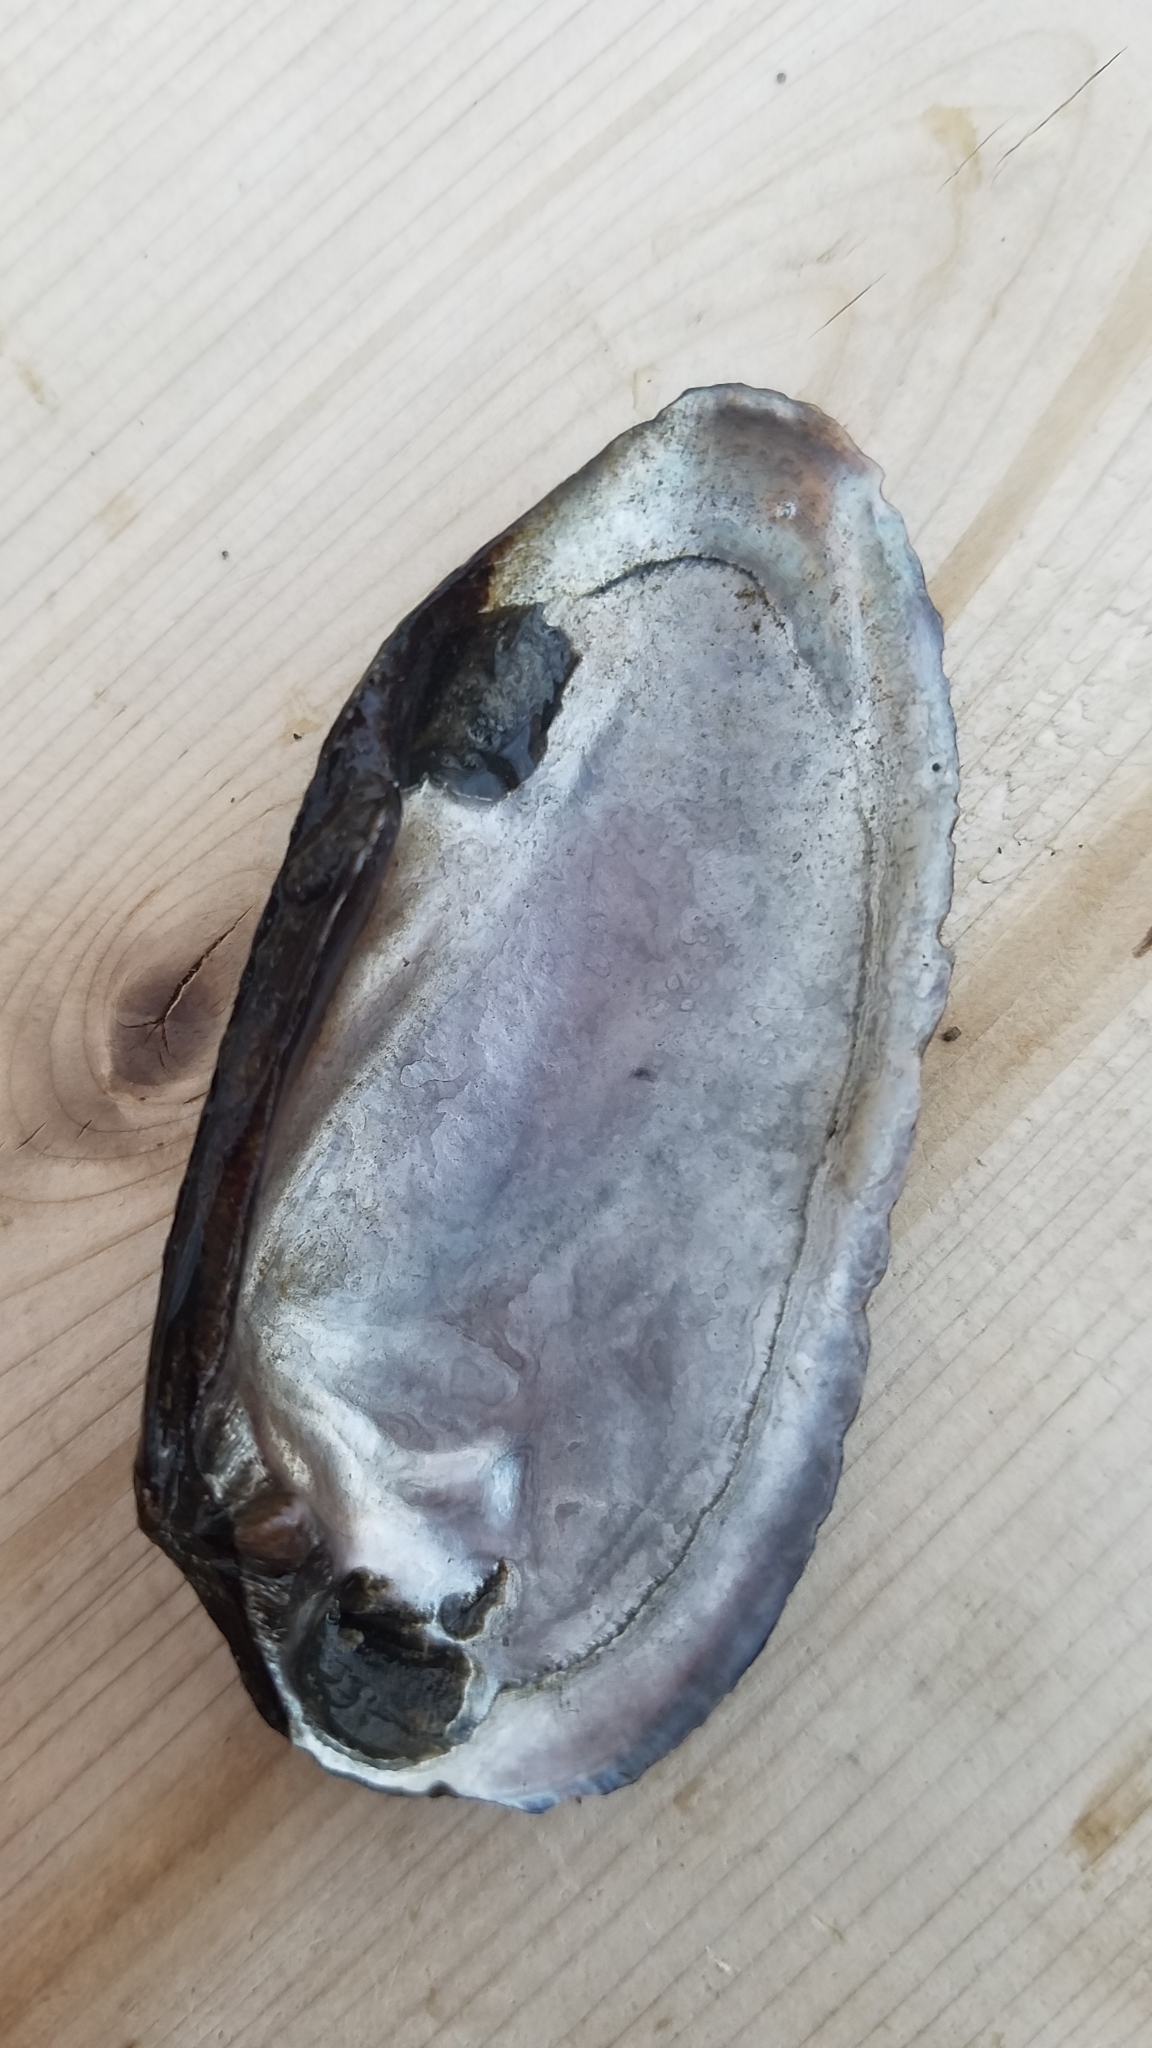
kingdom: Animalia
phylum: Mollusca
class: Bivalvia
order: Unionida
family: Unionidae
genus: Eurynia
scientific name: Eurynia dilatata
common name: Spike
